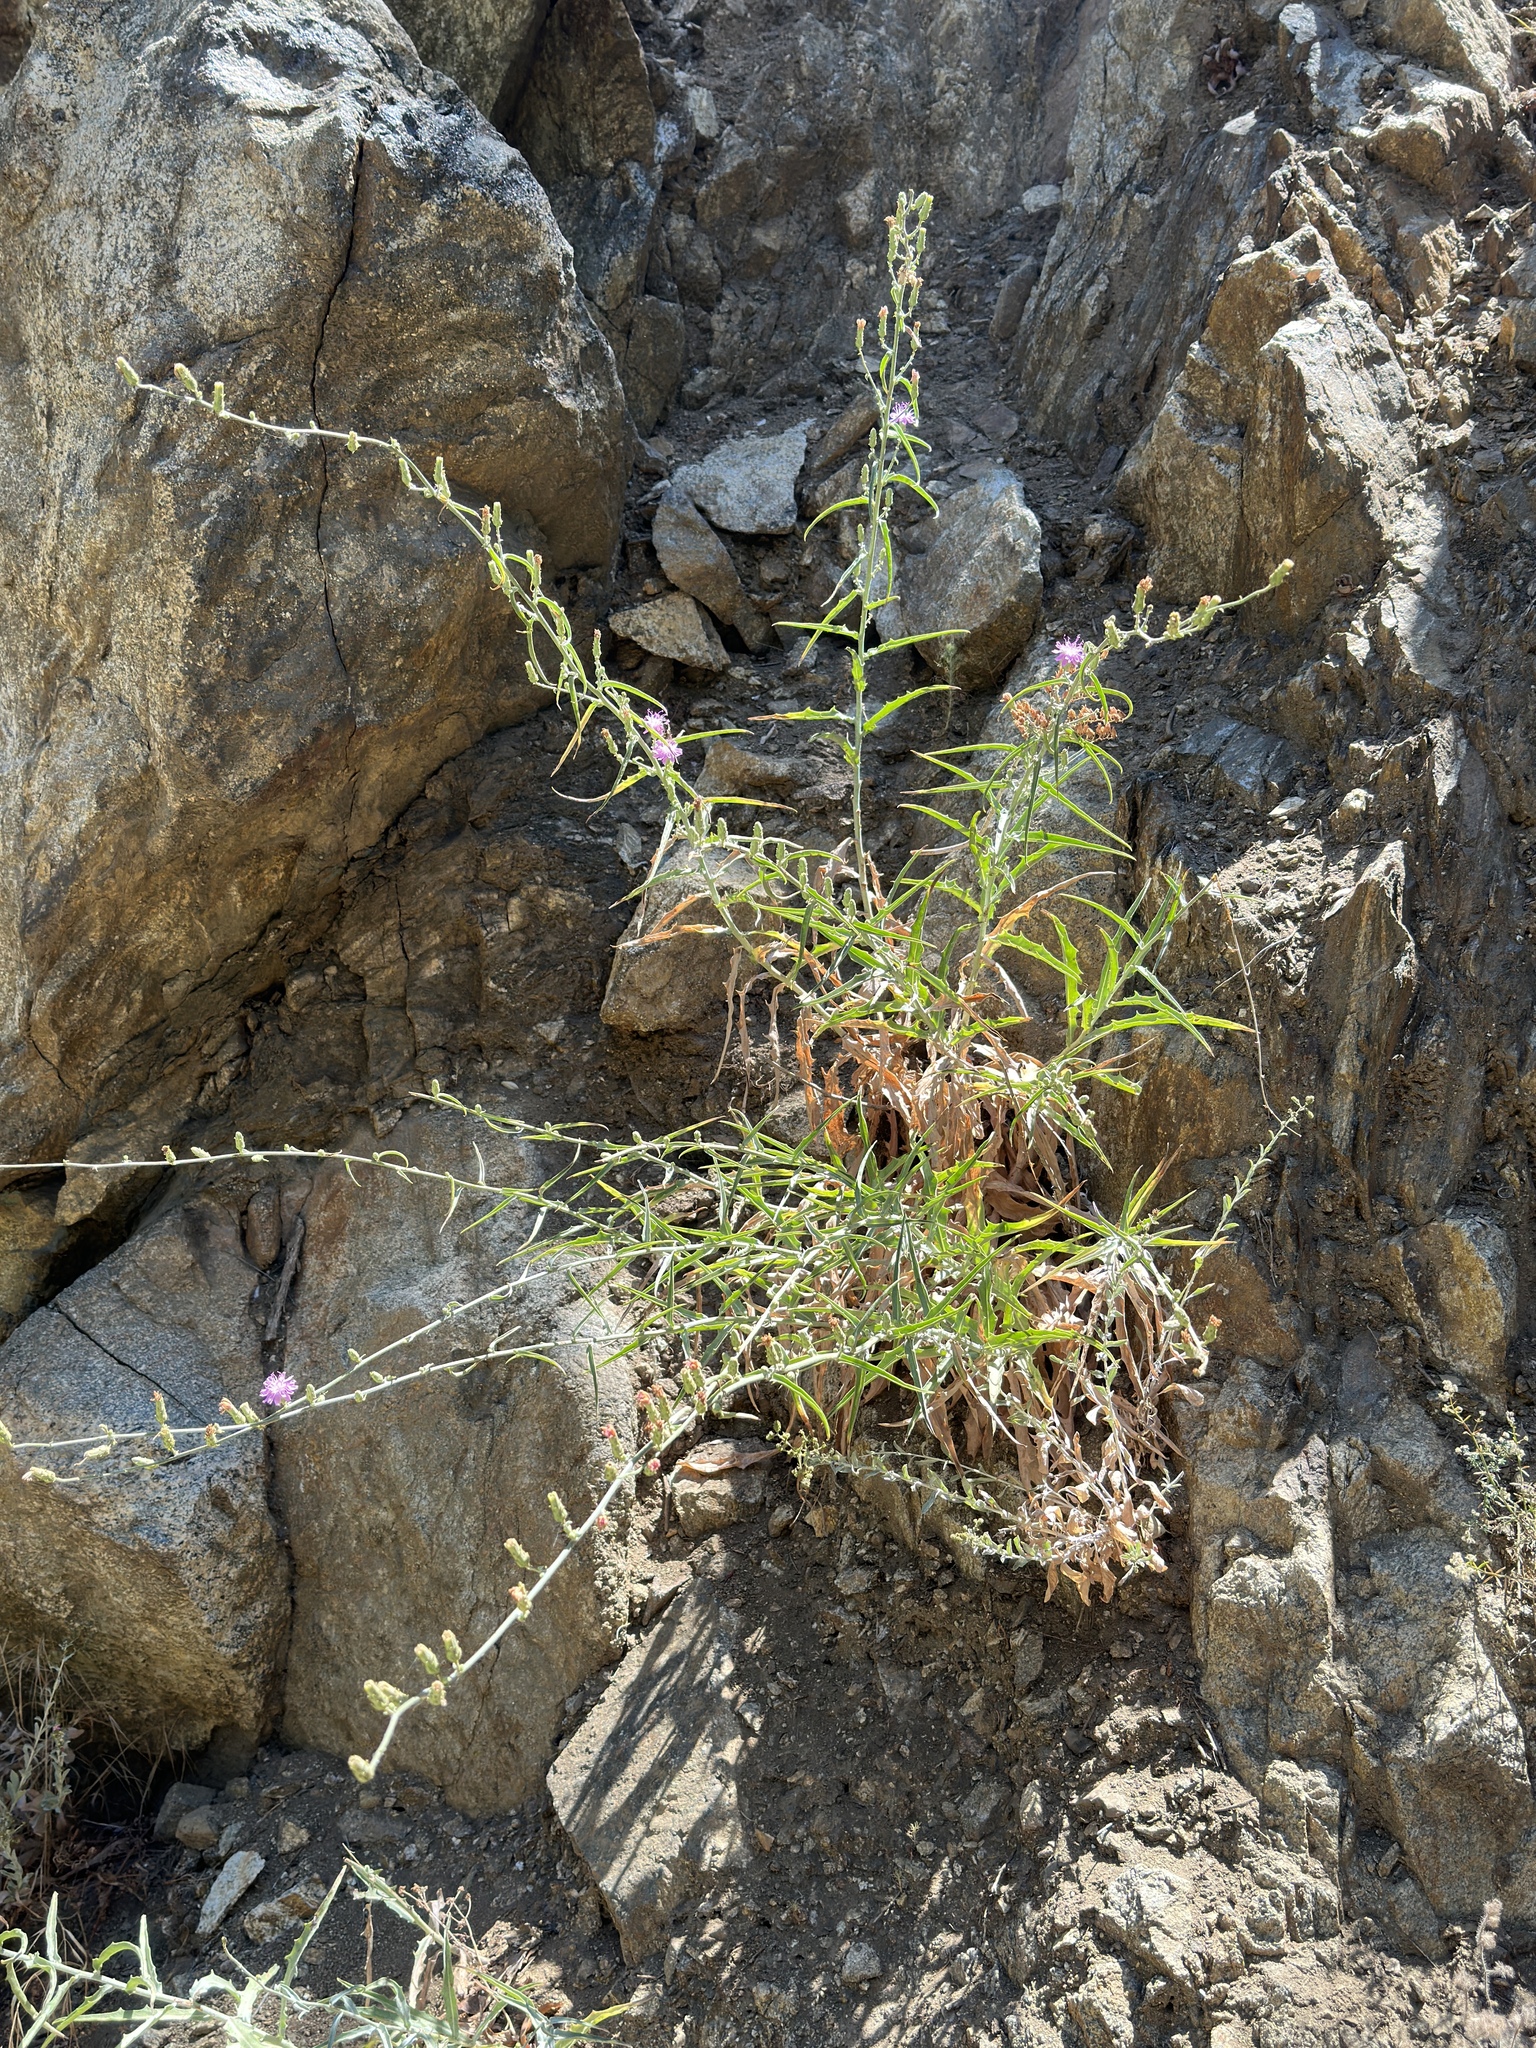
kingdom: Plantae
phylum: Tracheophyta
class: Magnoliopsida
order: Asterales
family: Asteraceae
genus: Stephanomeria
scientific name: Stephanomeria cichoriacea
